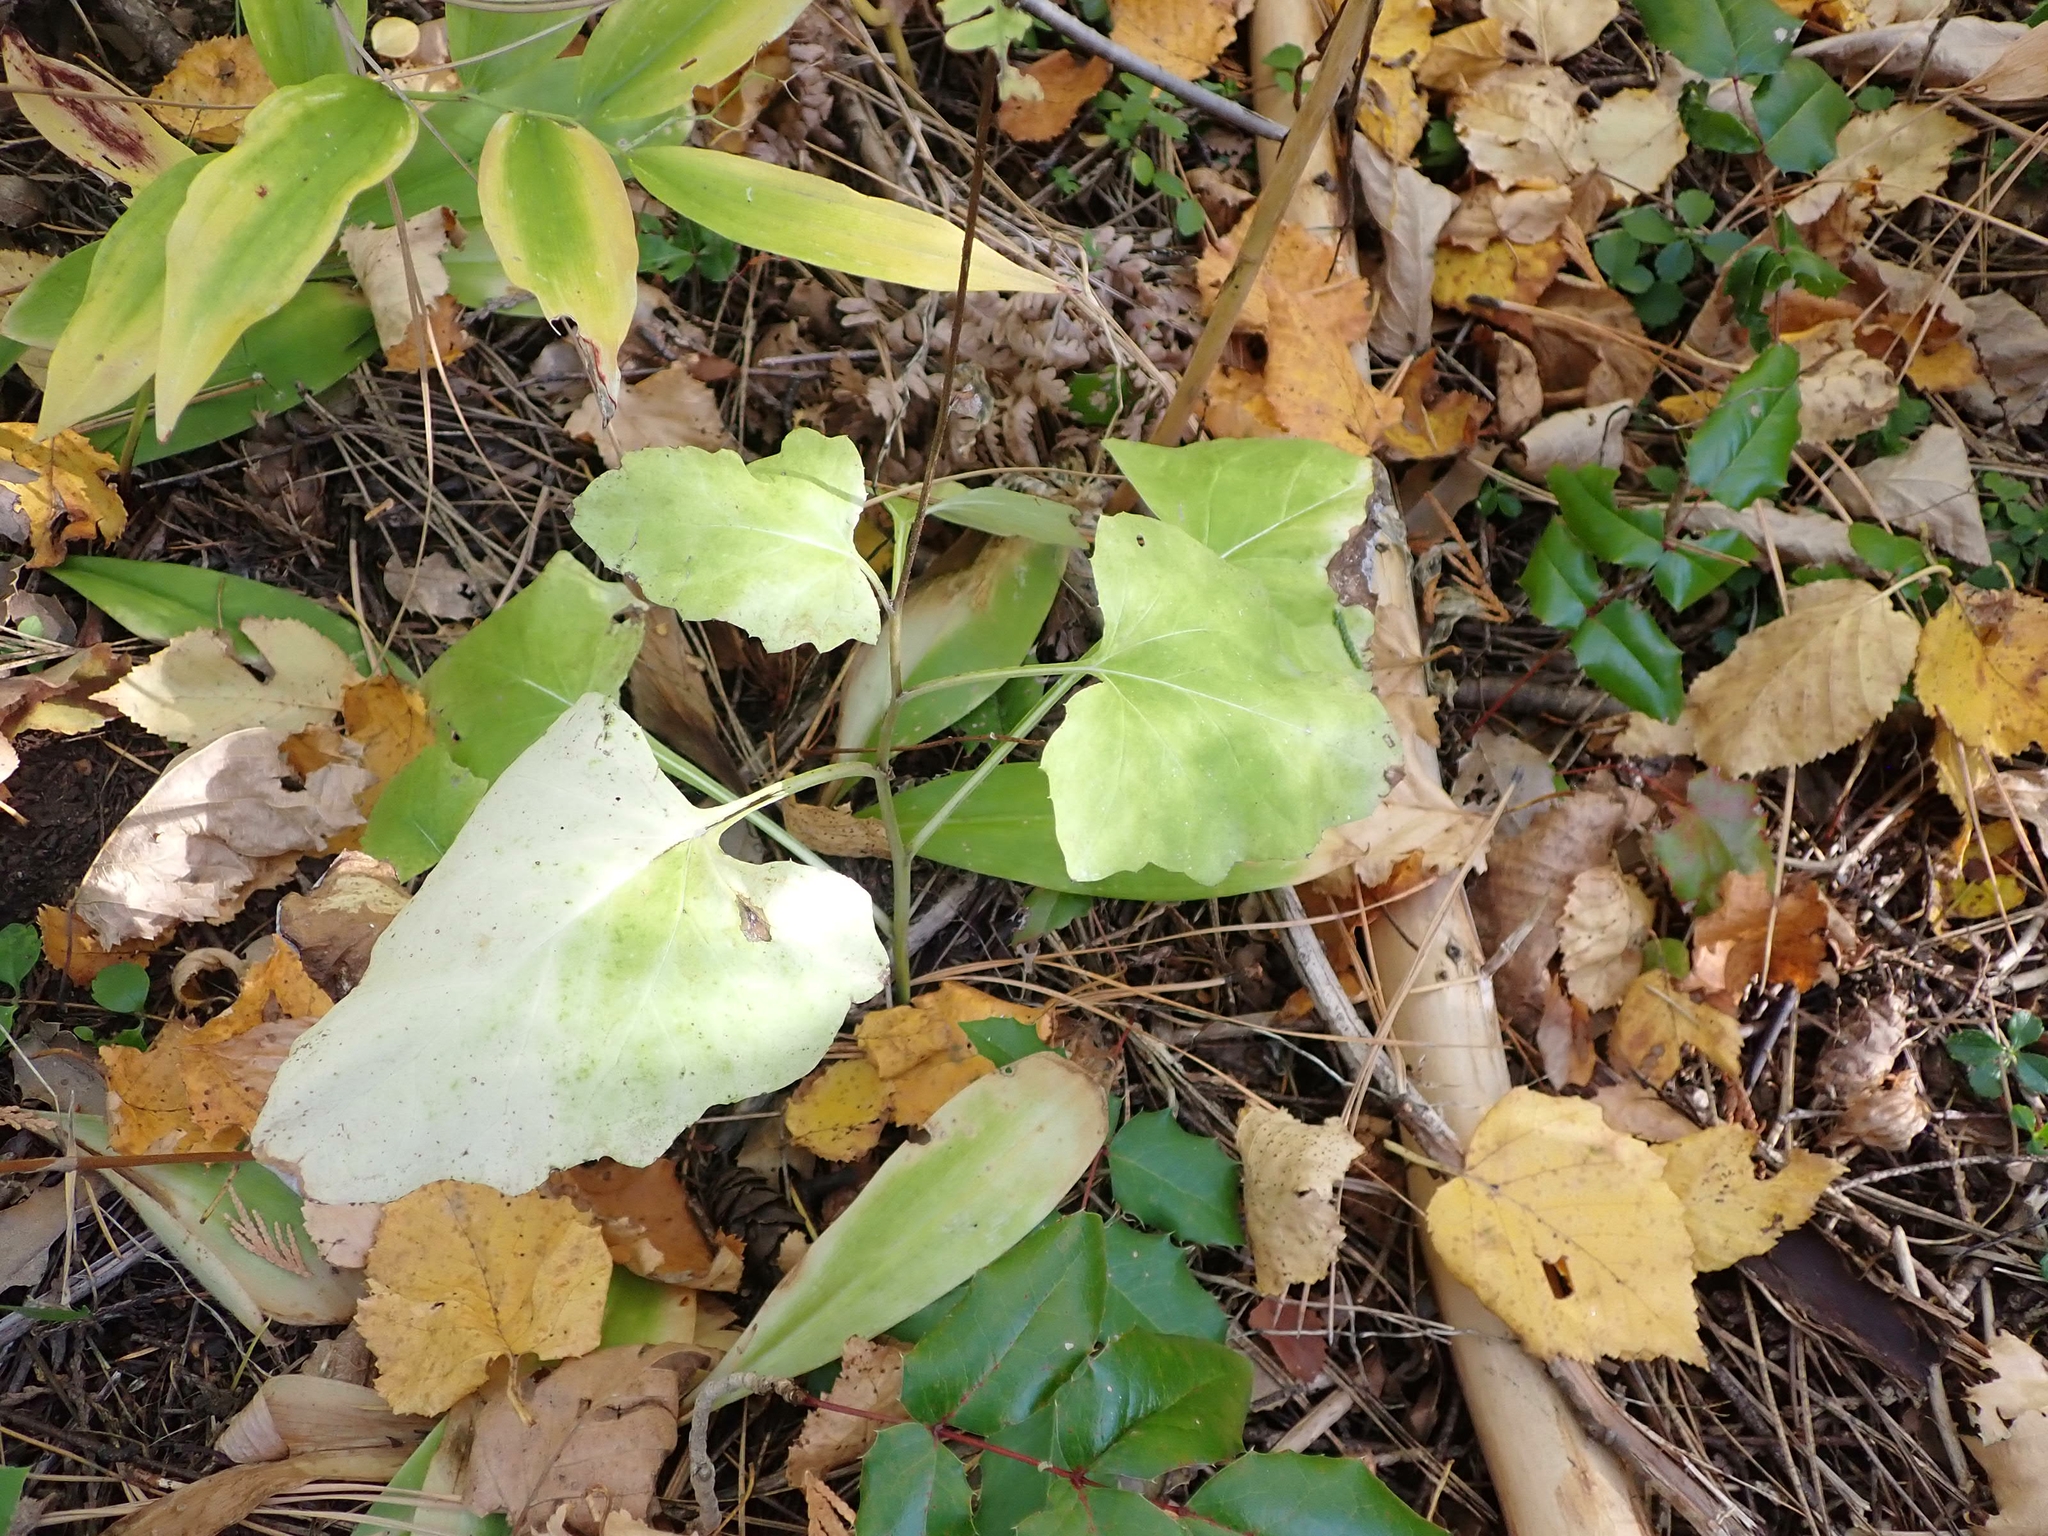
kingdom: Plantae
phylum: Tracheophyta
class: Magnoliopsida
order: Asterales
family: Asteraceae
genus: Adenocaulon
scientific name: Adenocaulon bicolor
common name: Trailplant
